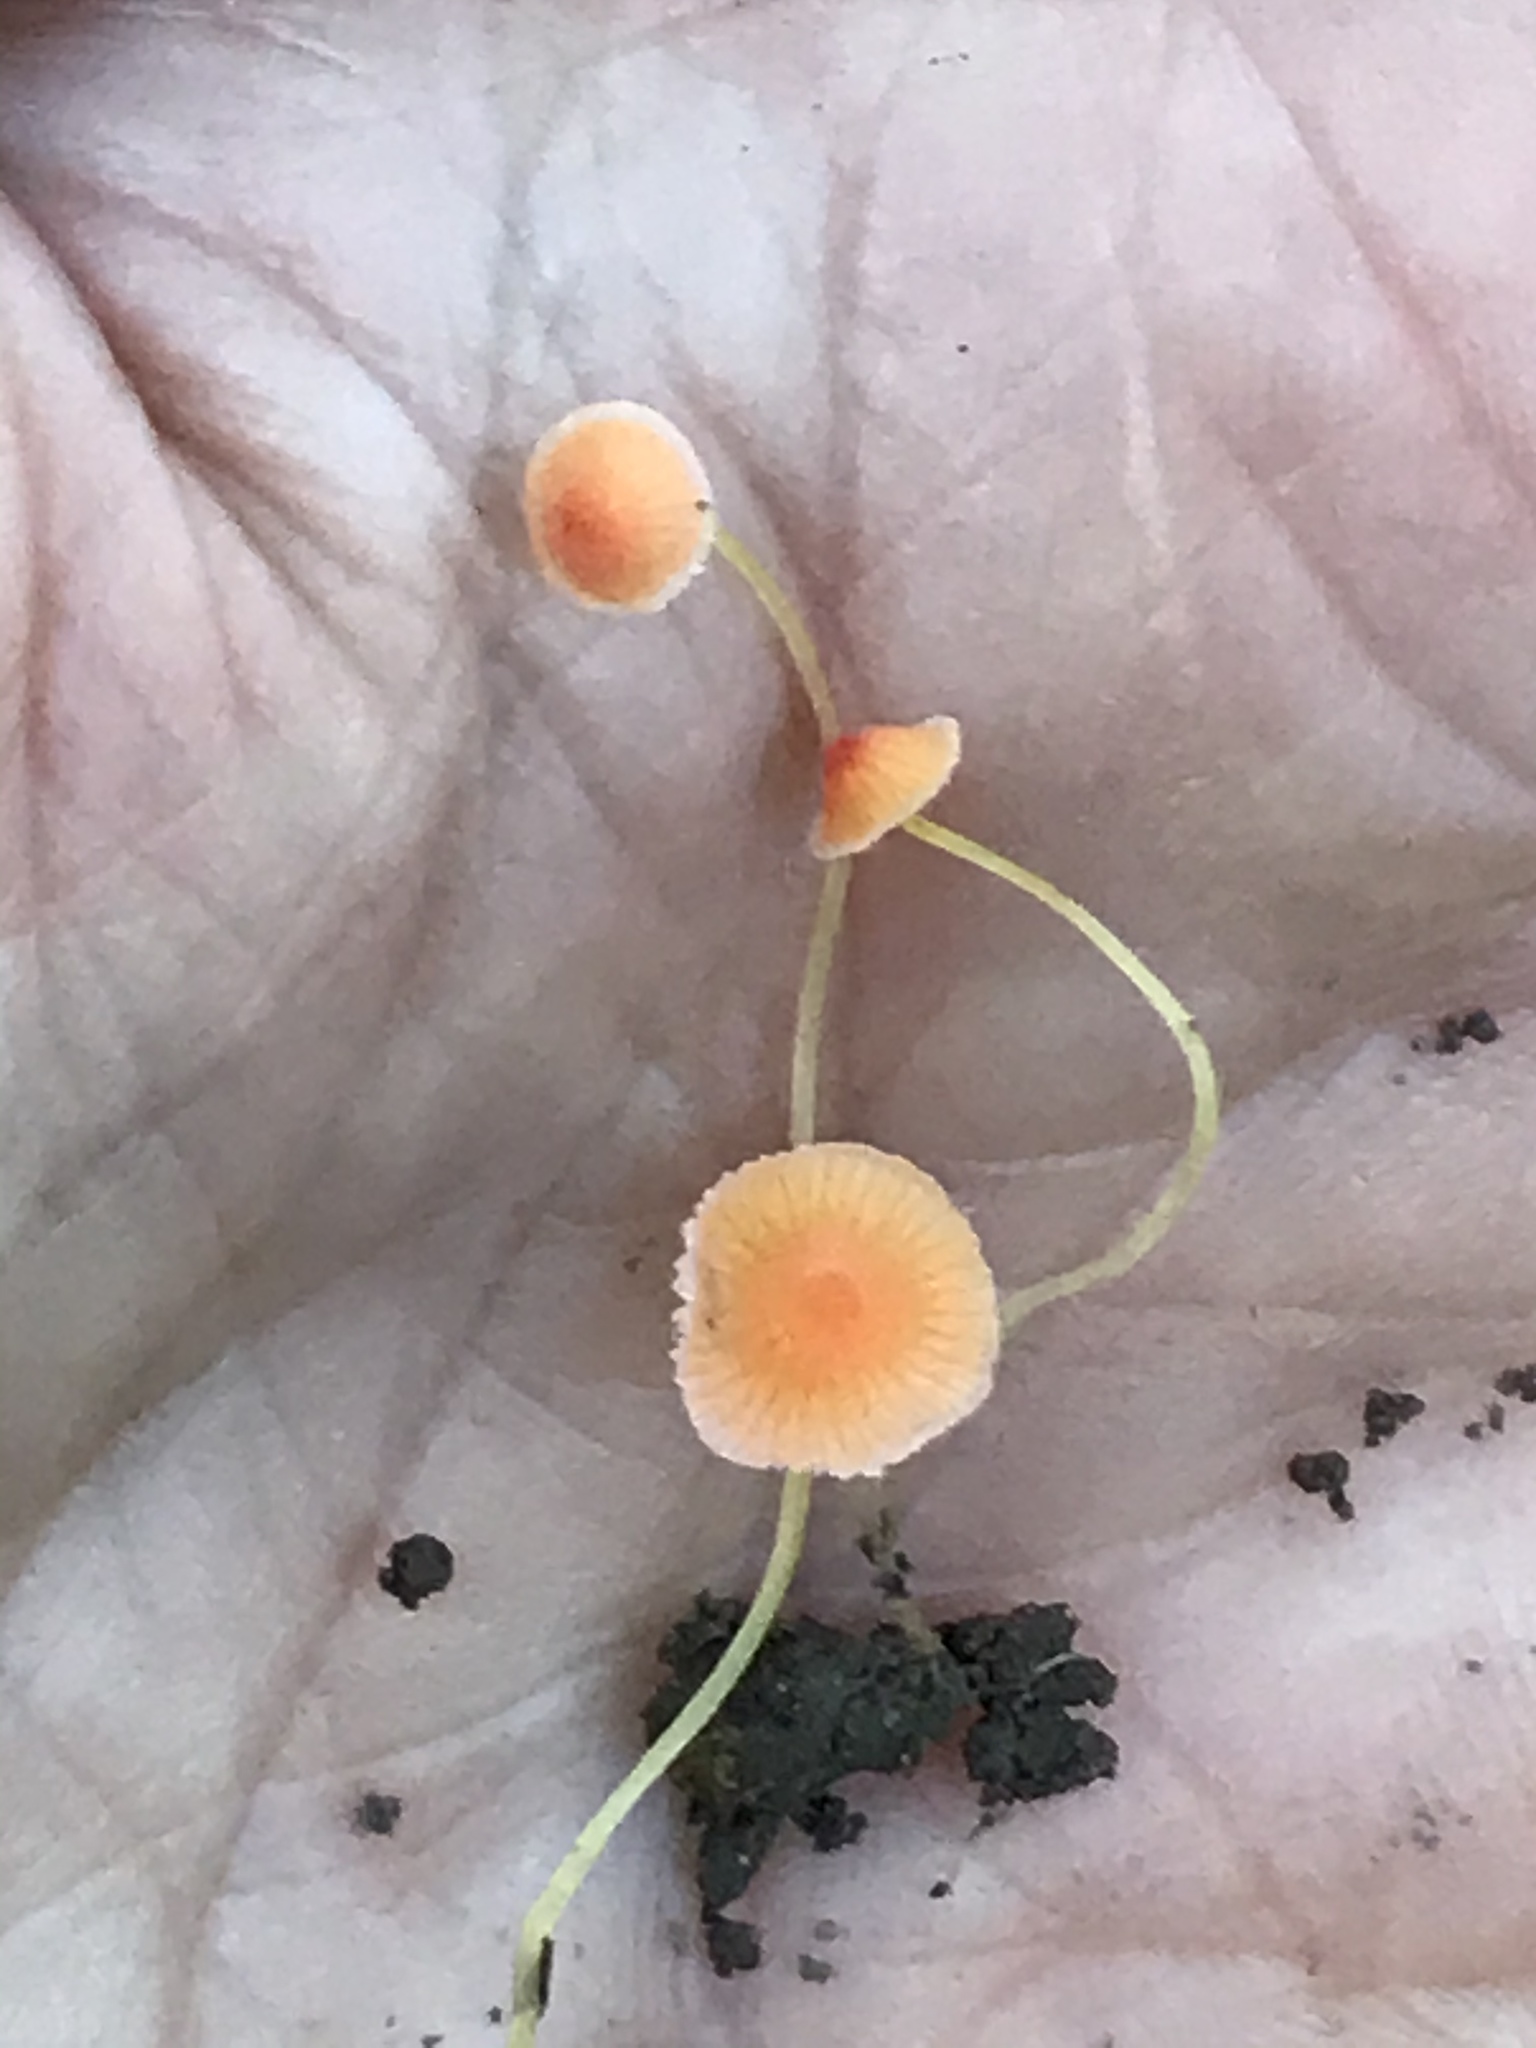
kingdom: Fungi
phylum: Basidiomycota
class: Agaricomycetes
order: Agaricales
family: Mycenaceae
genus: Mycena
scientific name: Mycena acicula
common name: Orange bonnet
